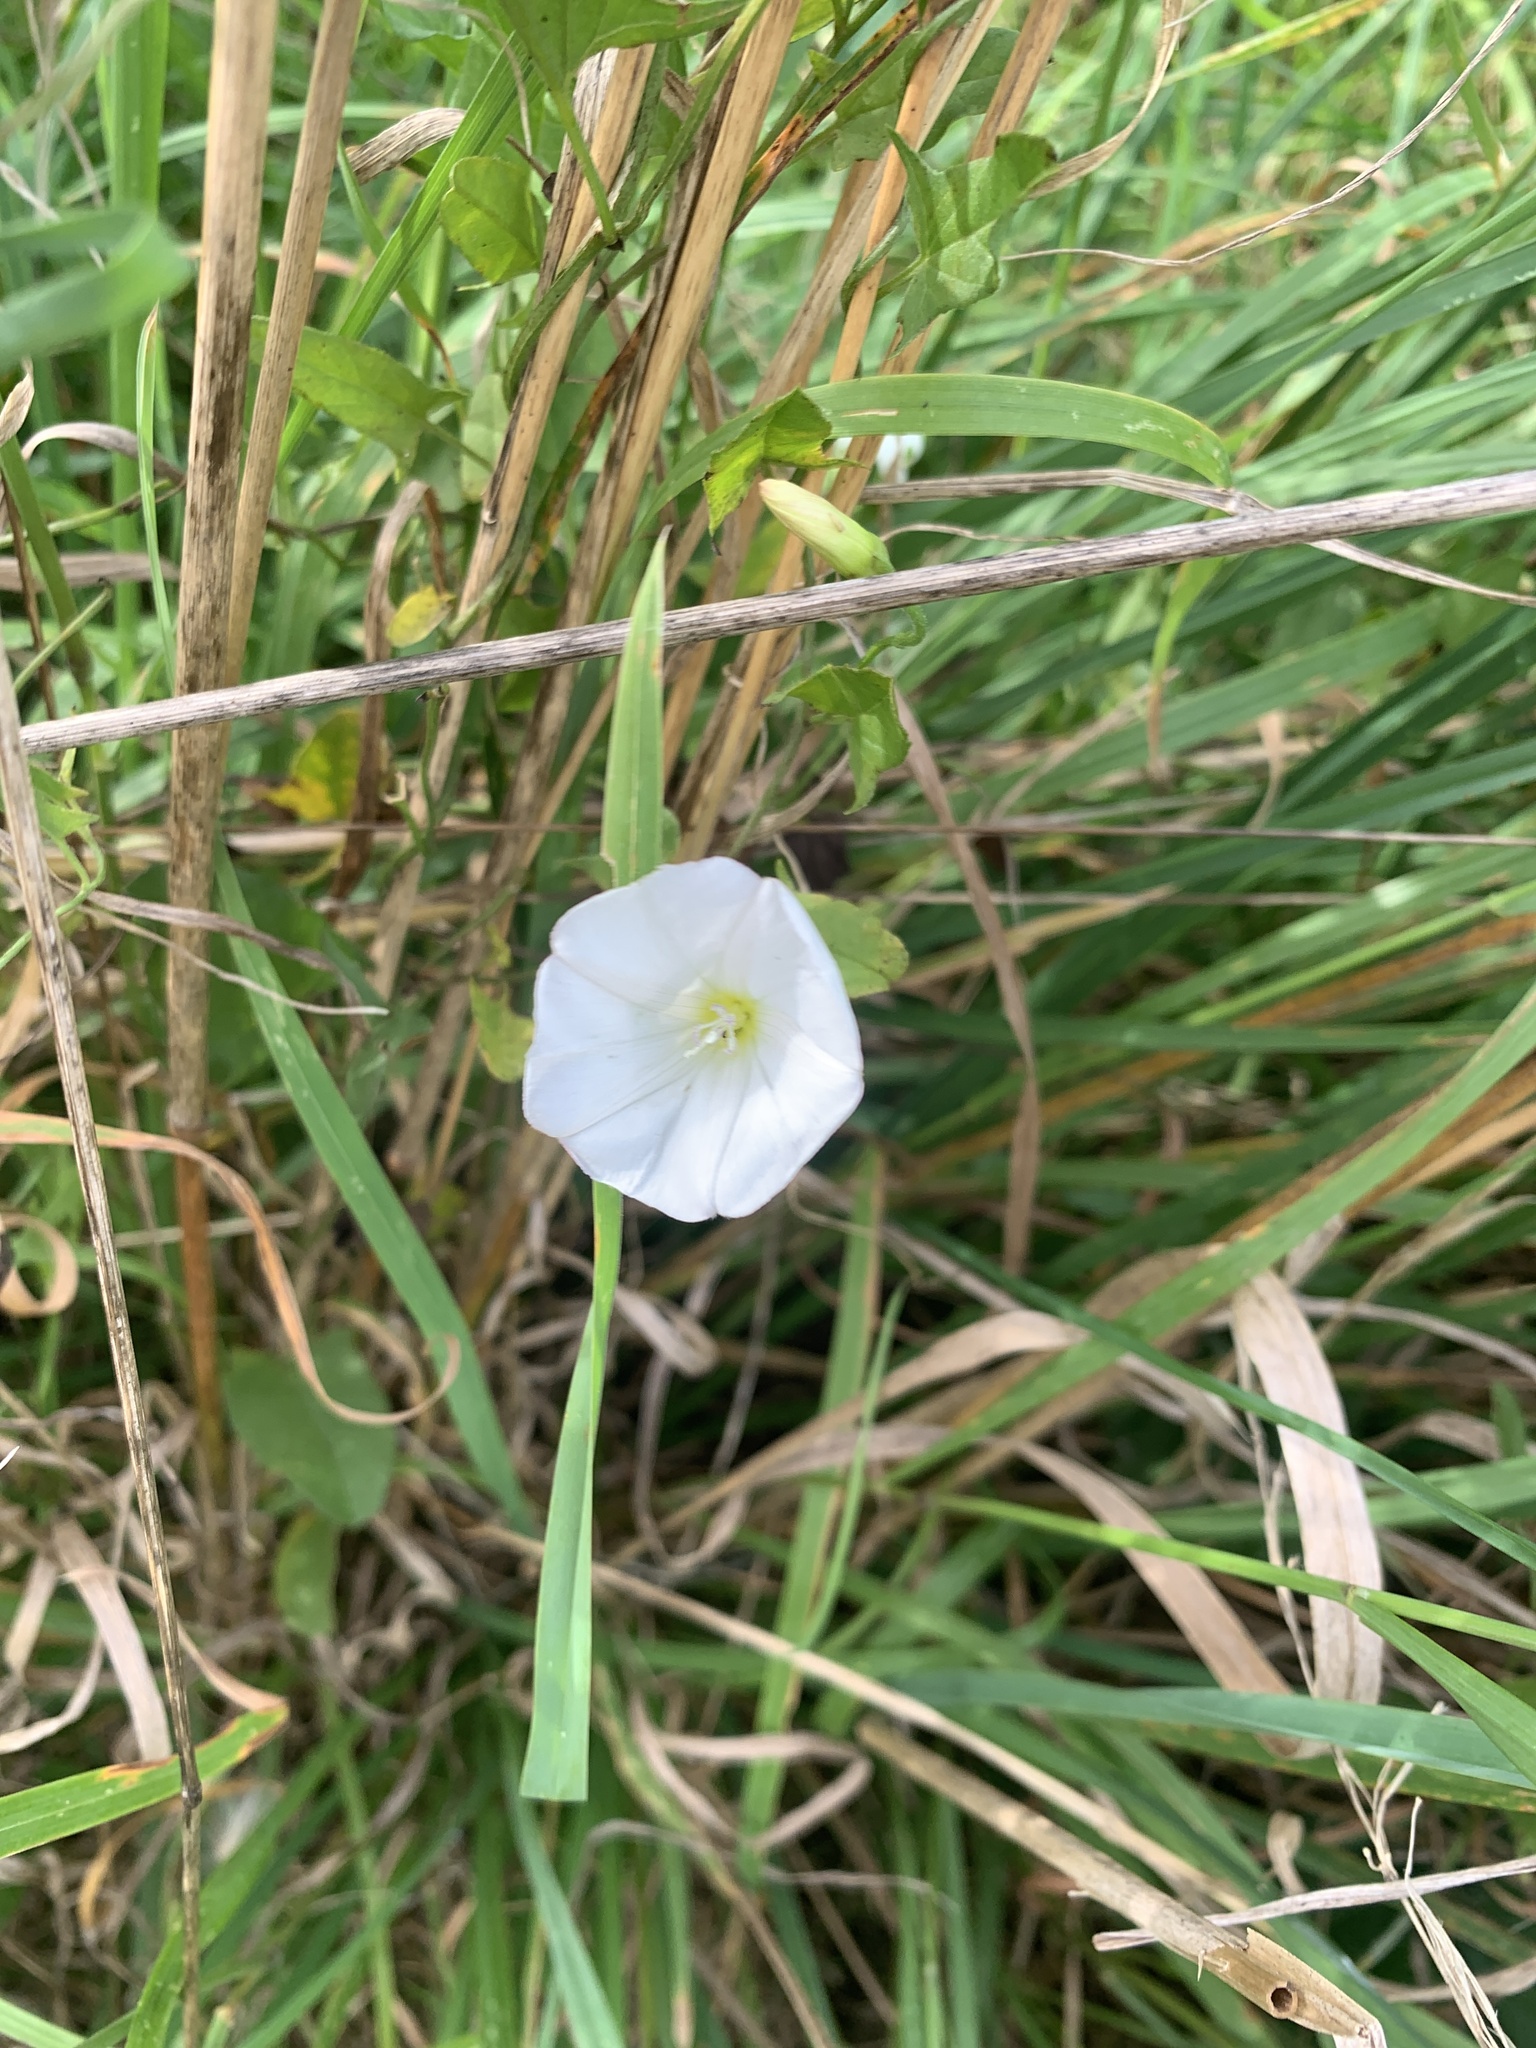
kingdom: Plantae
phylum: Tracheophyta
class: Magnoliopsida
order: Solanales
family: Convolvulaceae
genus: Convolvulus
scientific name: Convolvulus arvensis
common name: Field bindweed
